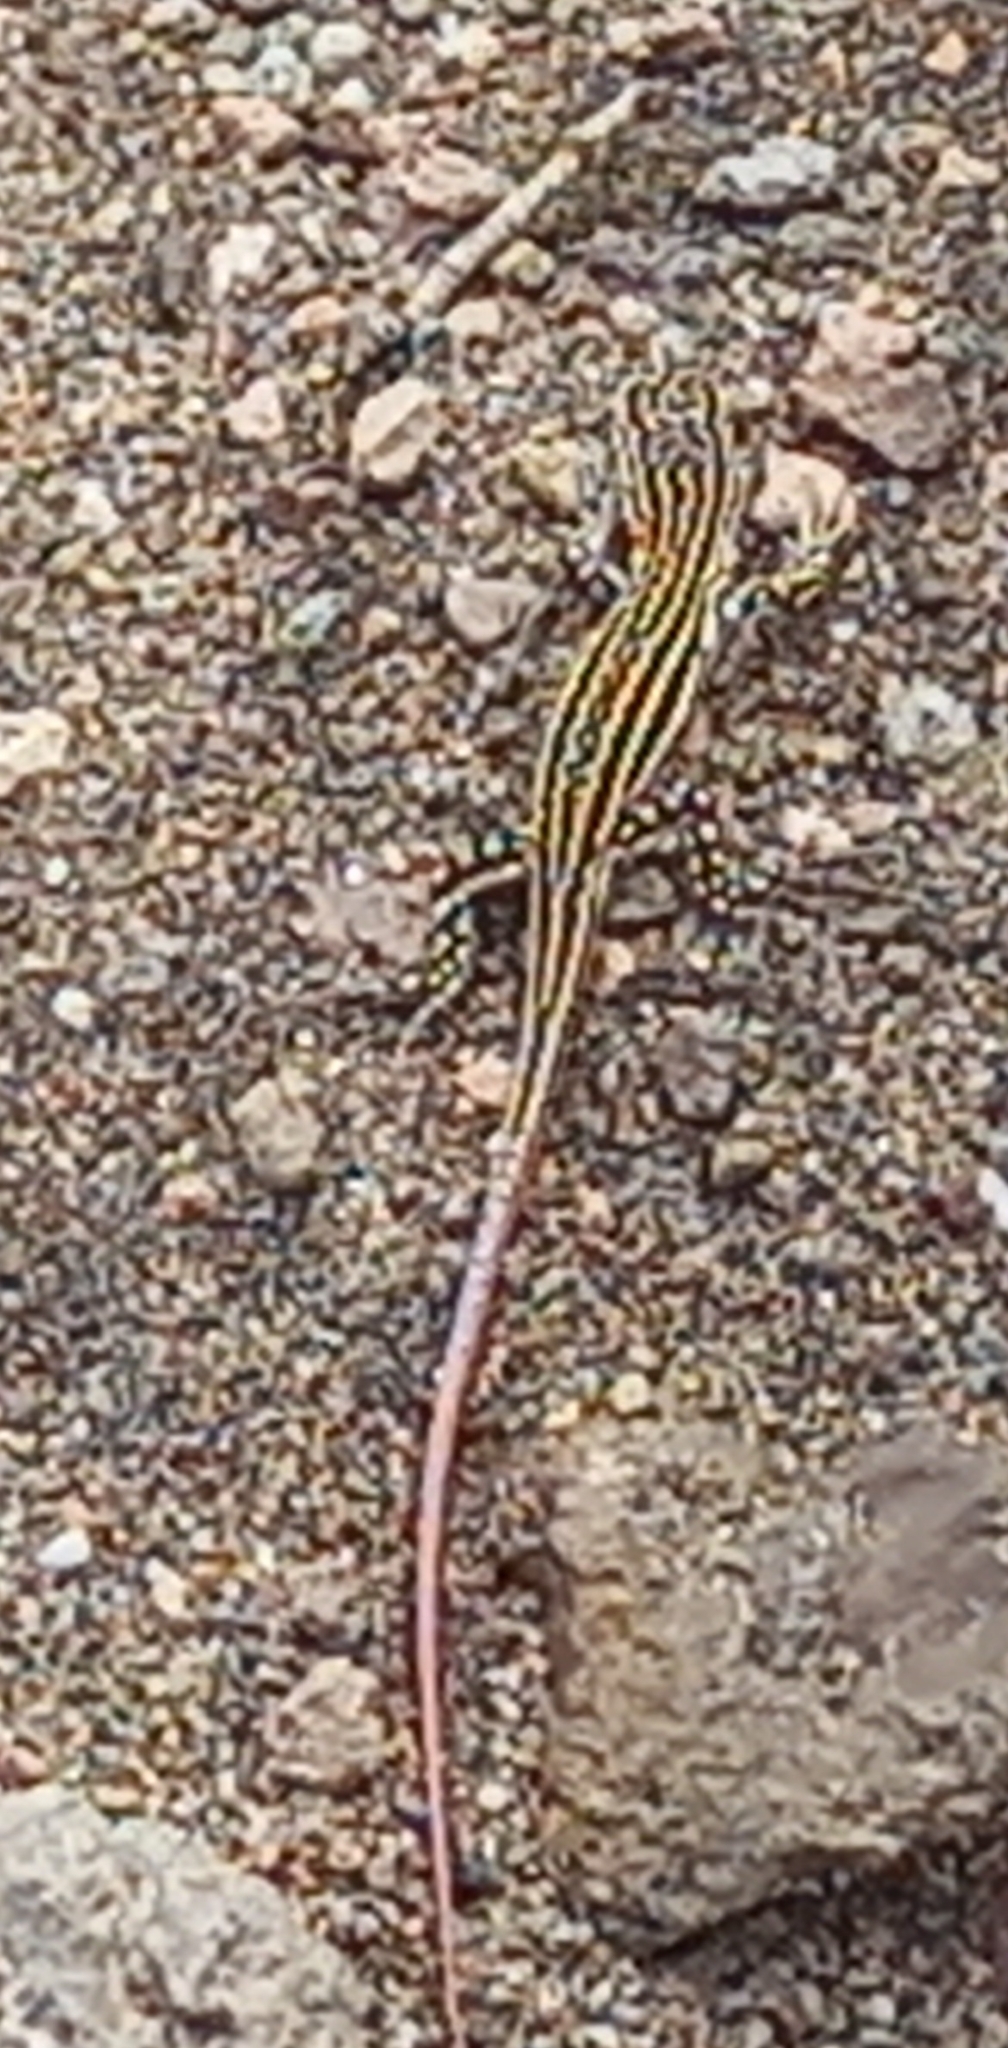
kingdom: Animalia
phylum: Chordata
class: Squamata
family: Lacertidae
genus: Acanthodactylus
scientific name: Acanthodactylus erythrurus
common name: Spiny-footed lizard
